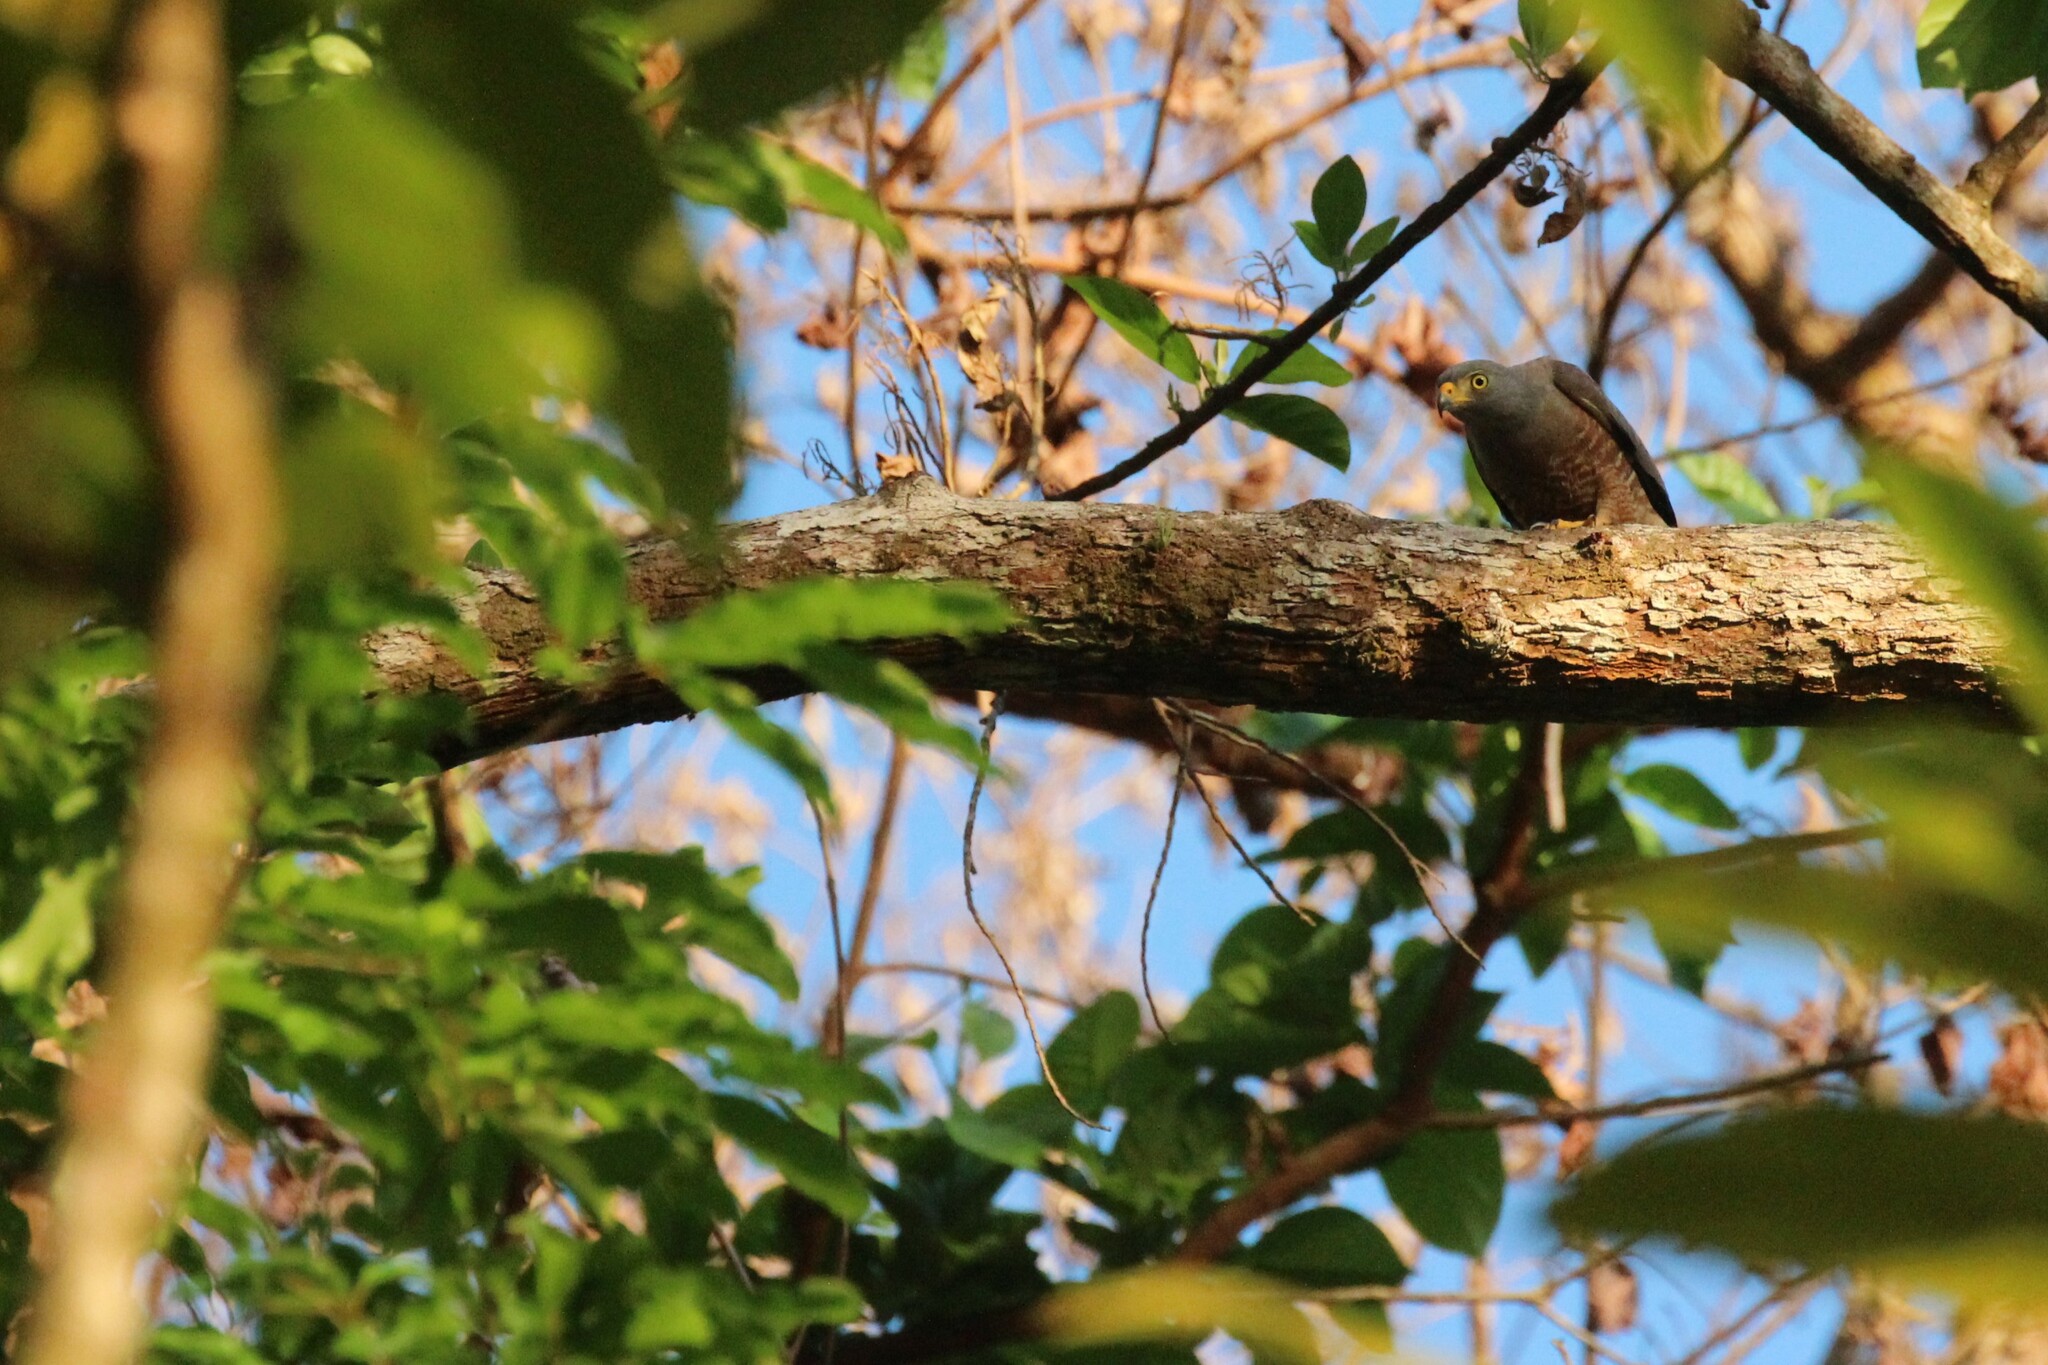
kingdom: Animalia
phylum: Chordata
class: Aves
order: Accipitriformes
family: Accipitridae
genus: Rupornis
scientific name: Rupornis magnirostris
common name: Roadside hawk
